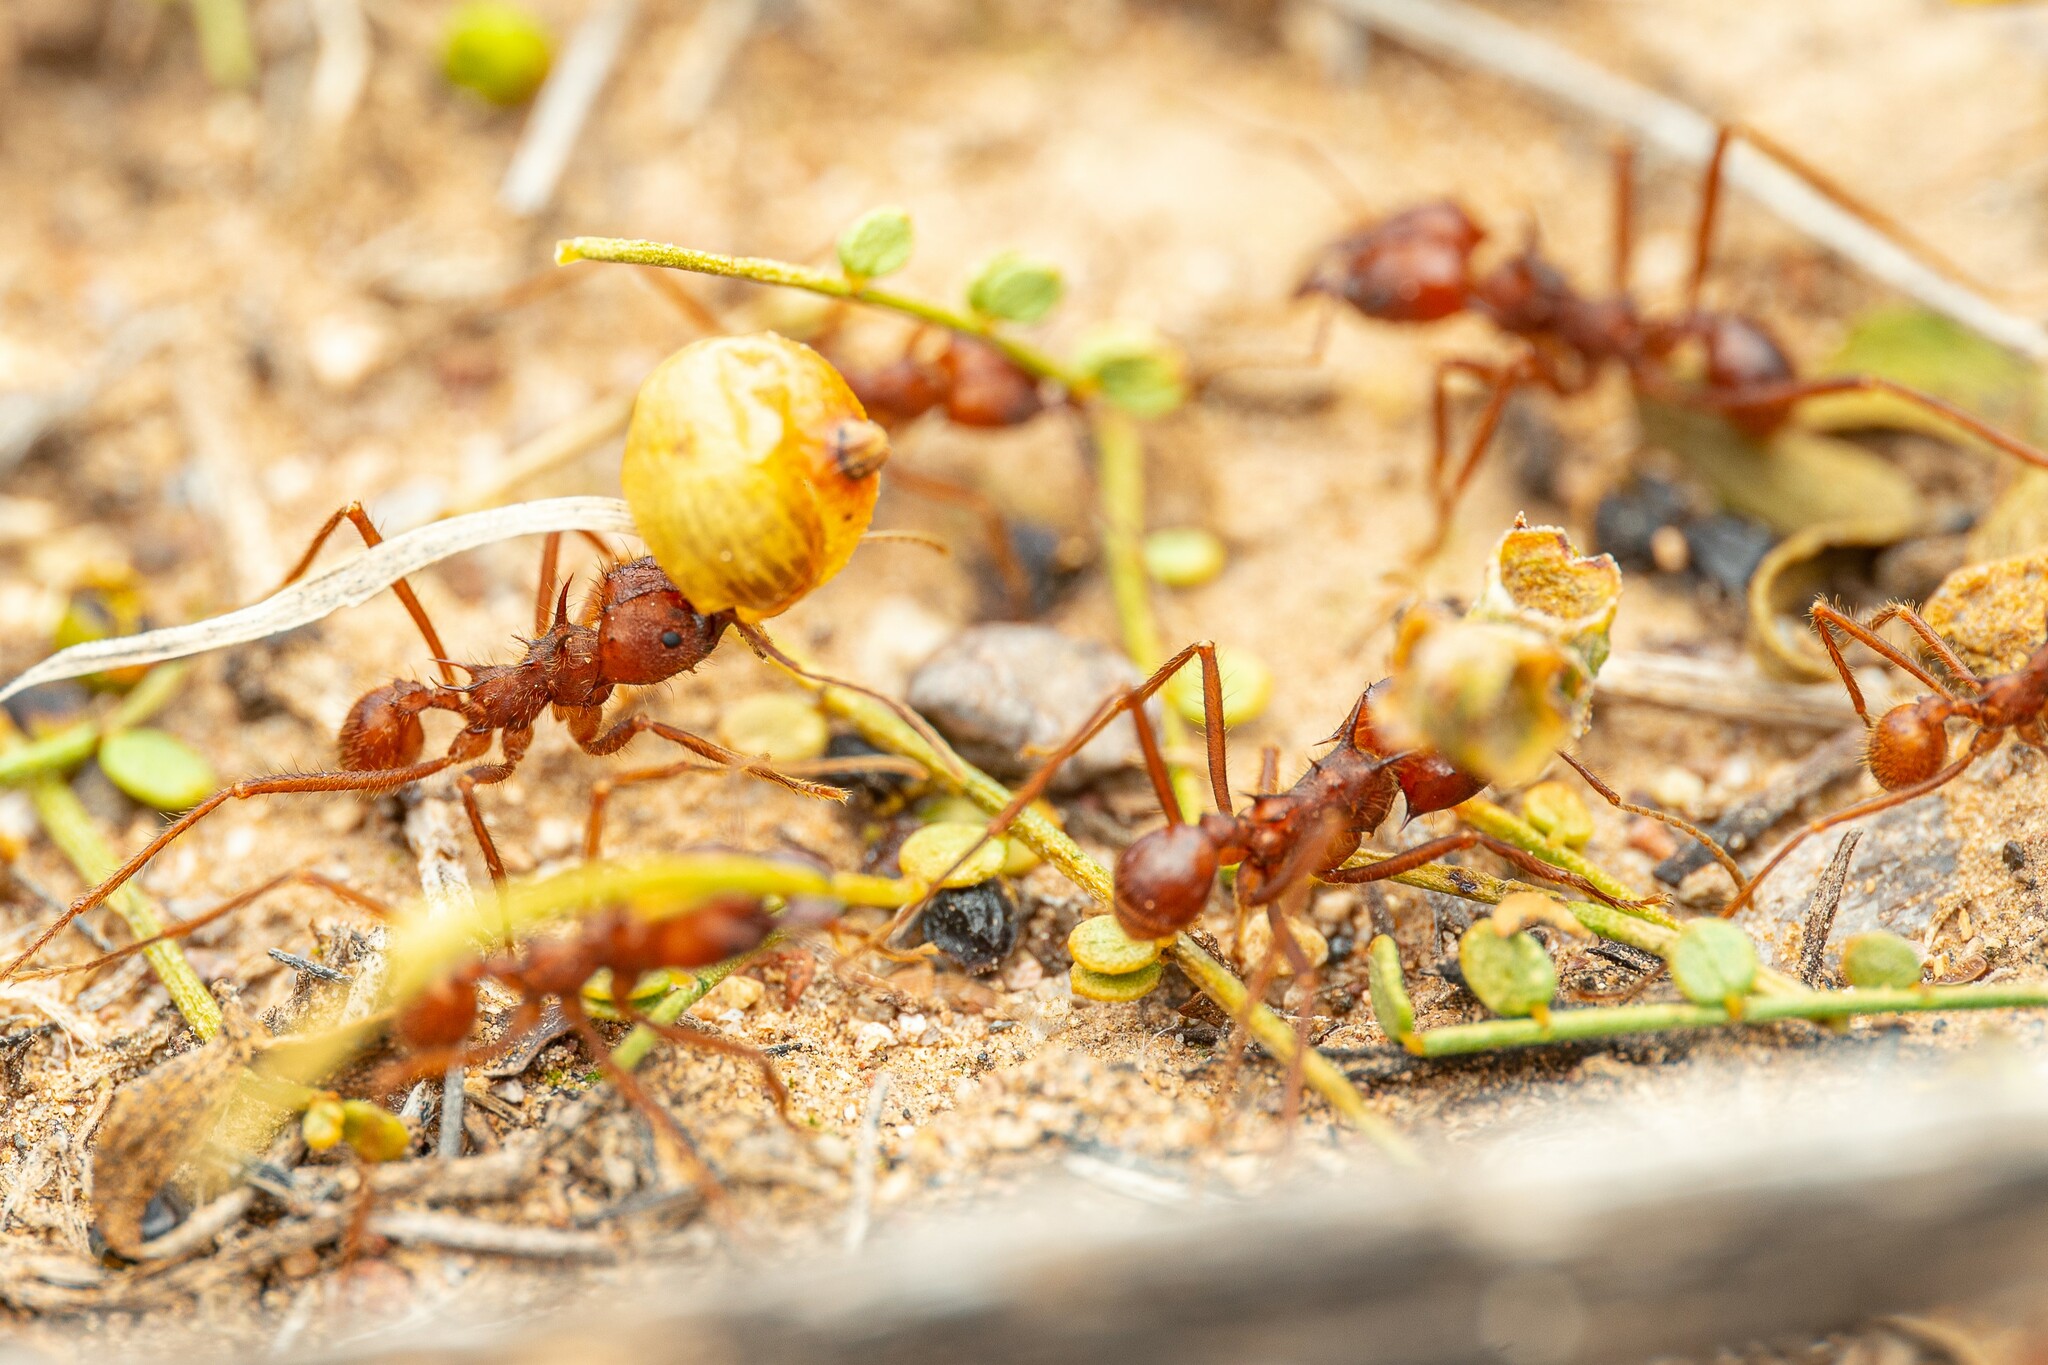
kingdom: Animalia
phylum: Arthropoda
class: Insecta
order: Hymenoptera
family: Formicidae
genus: Atta
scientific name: Atta mexicana
